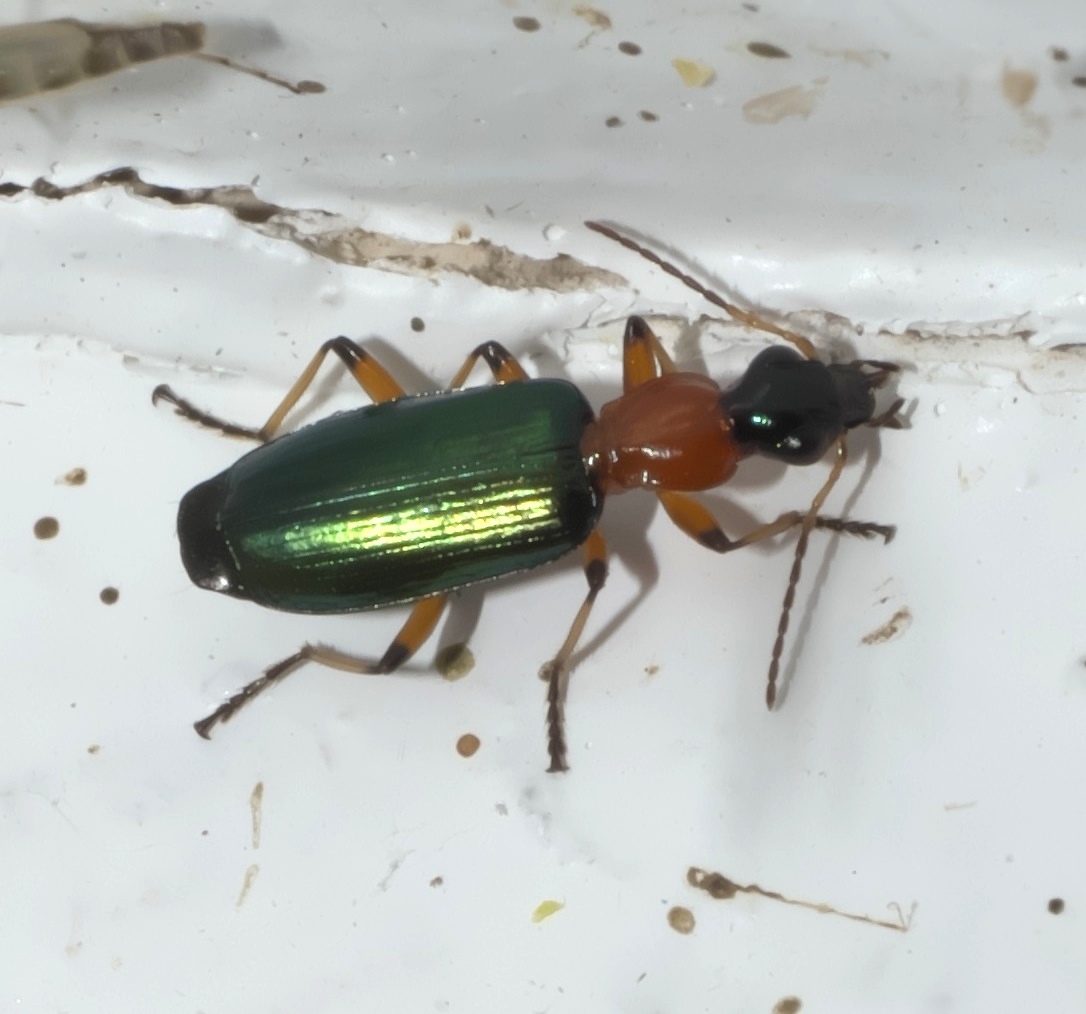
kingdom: Animalia
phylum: Arthropoda
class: Insecta
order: Coleoptera
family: Carabidae
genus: Calleida
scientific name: Calleida cordicollis
